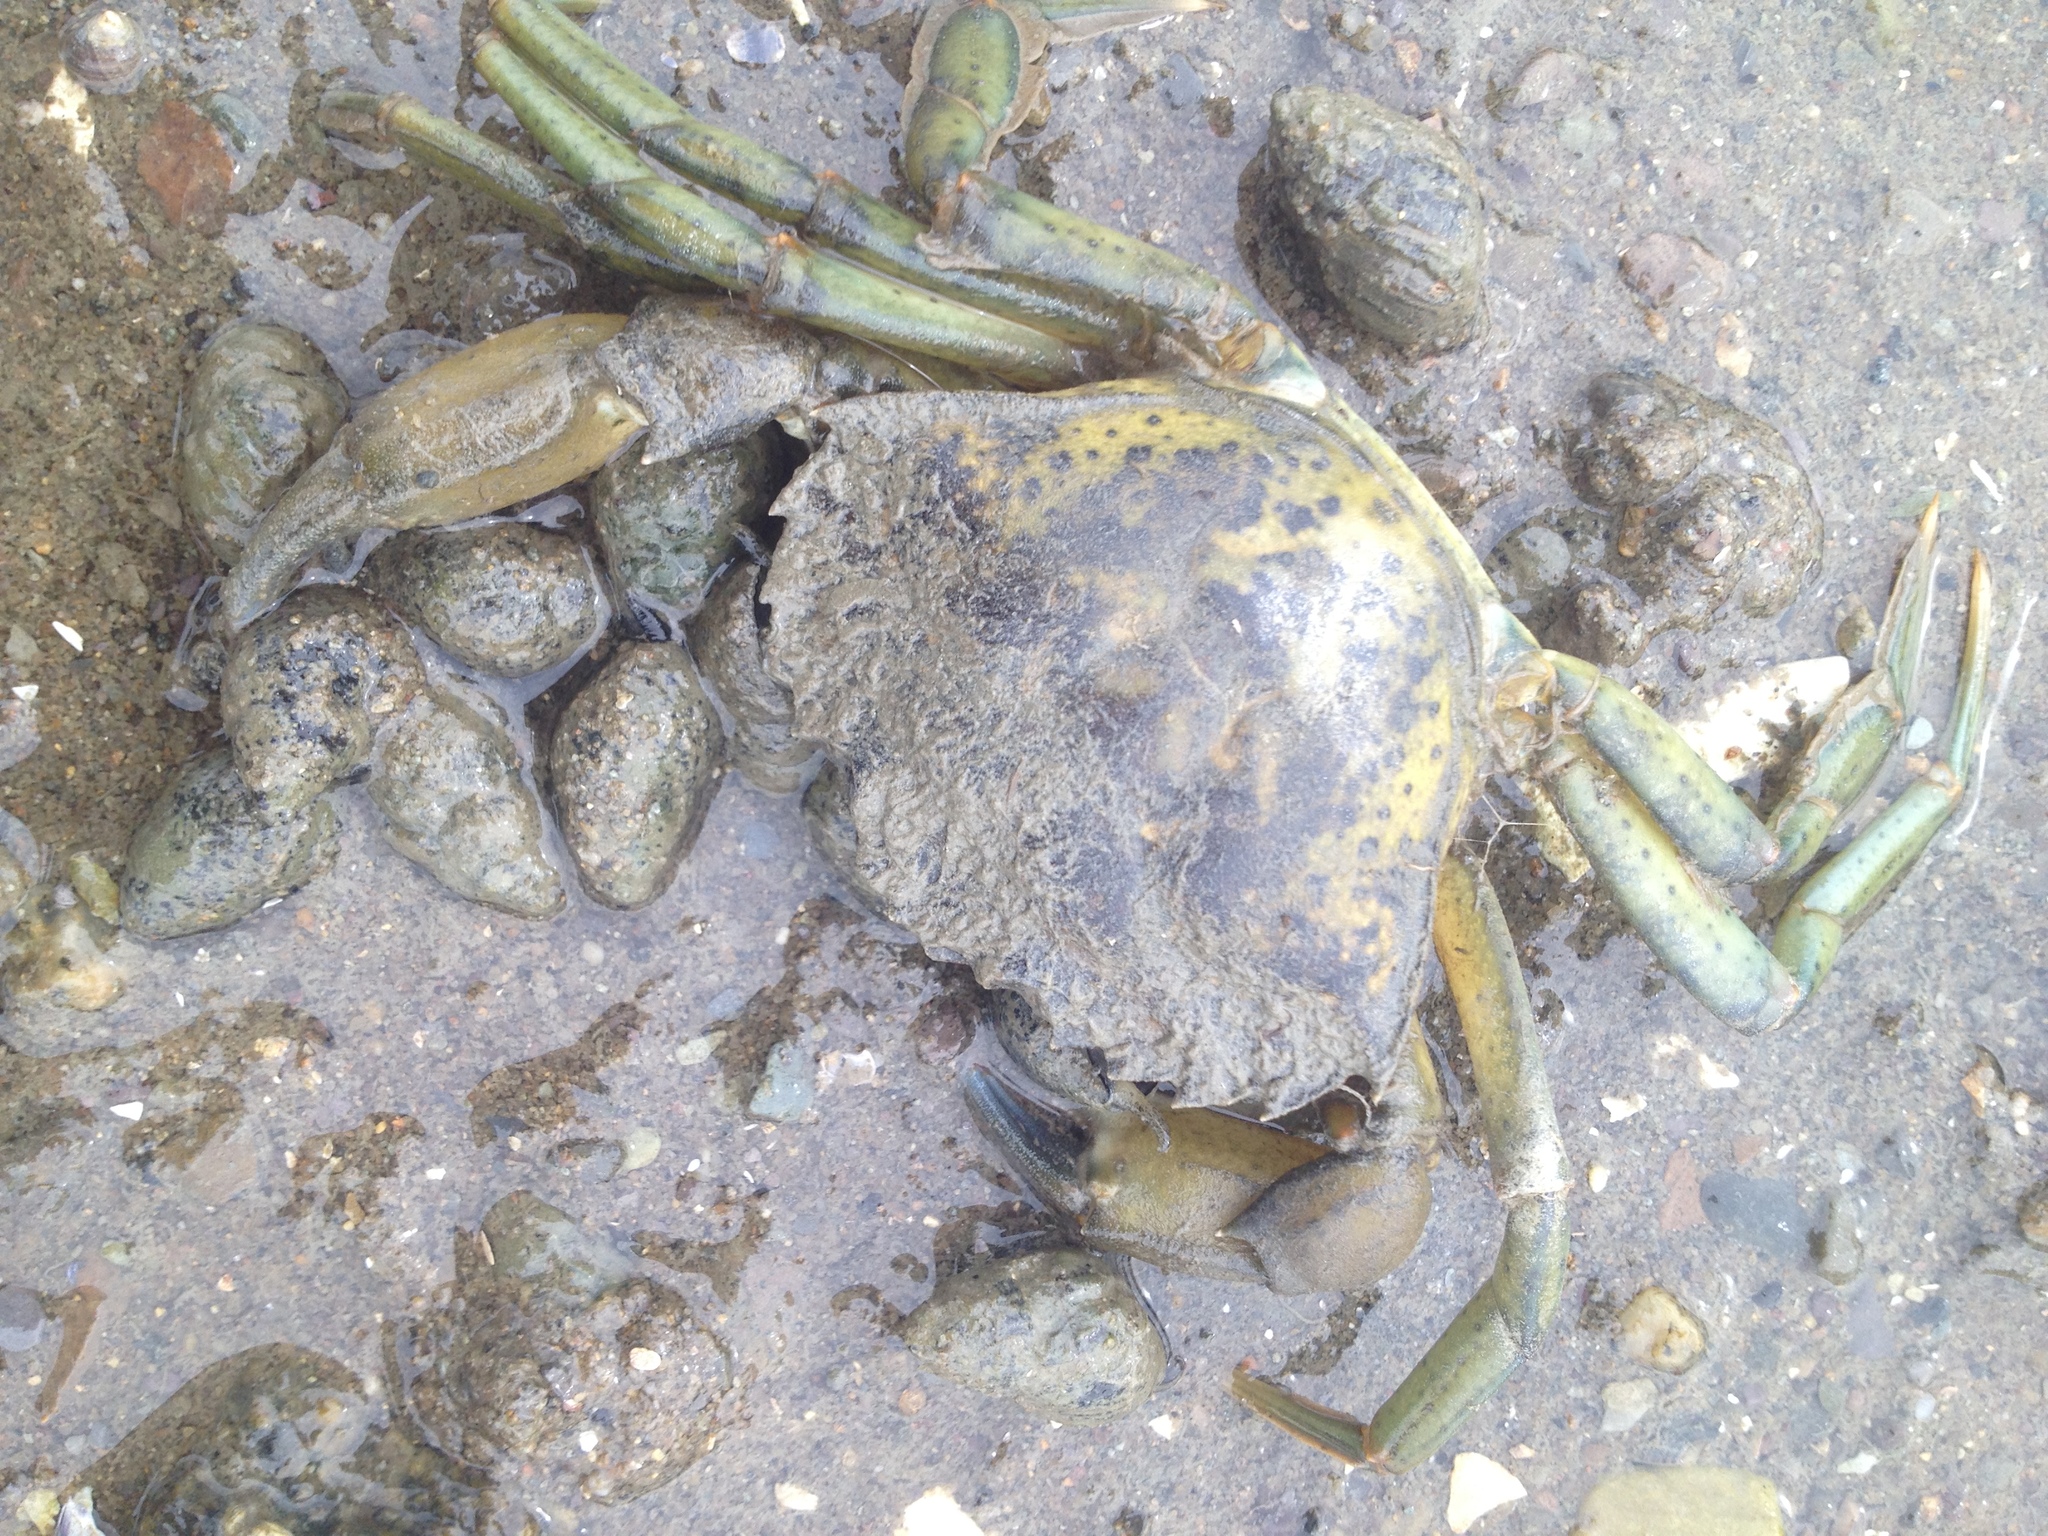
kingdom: Animalia
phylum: Arthropoda
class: Malacostraca
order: Decapoda
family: Carcinidae
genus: Carcinus
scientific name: Carcinus maenas
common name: European green crab
